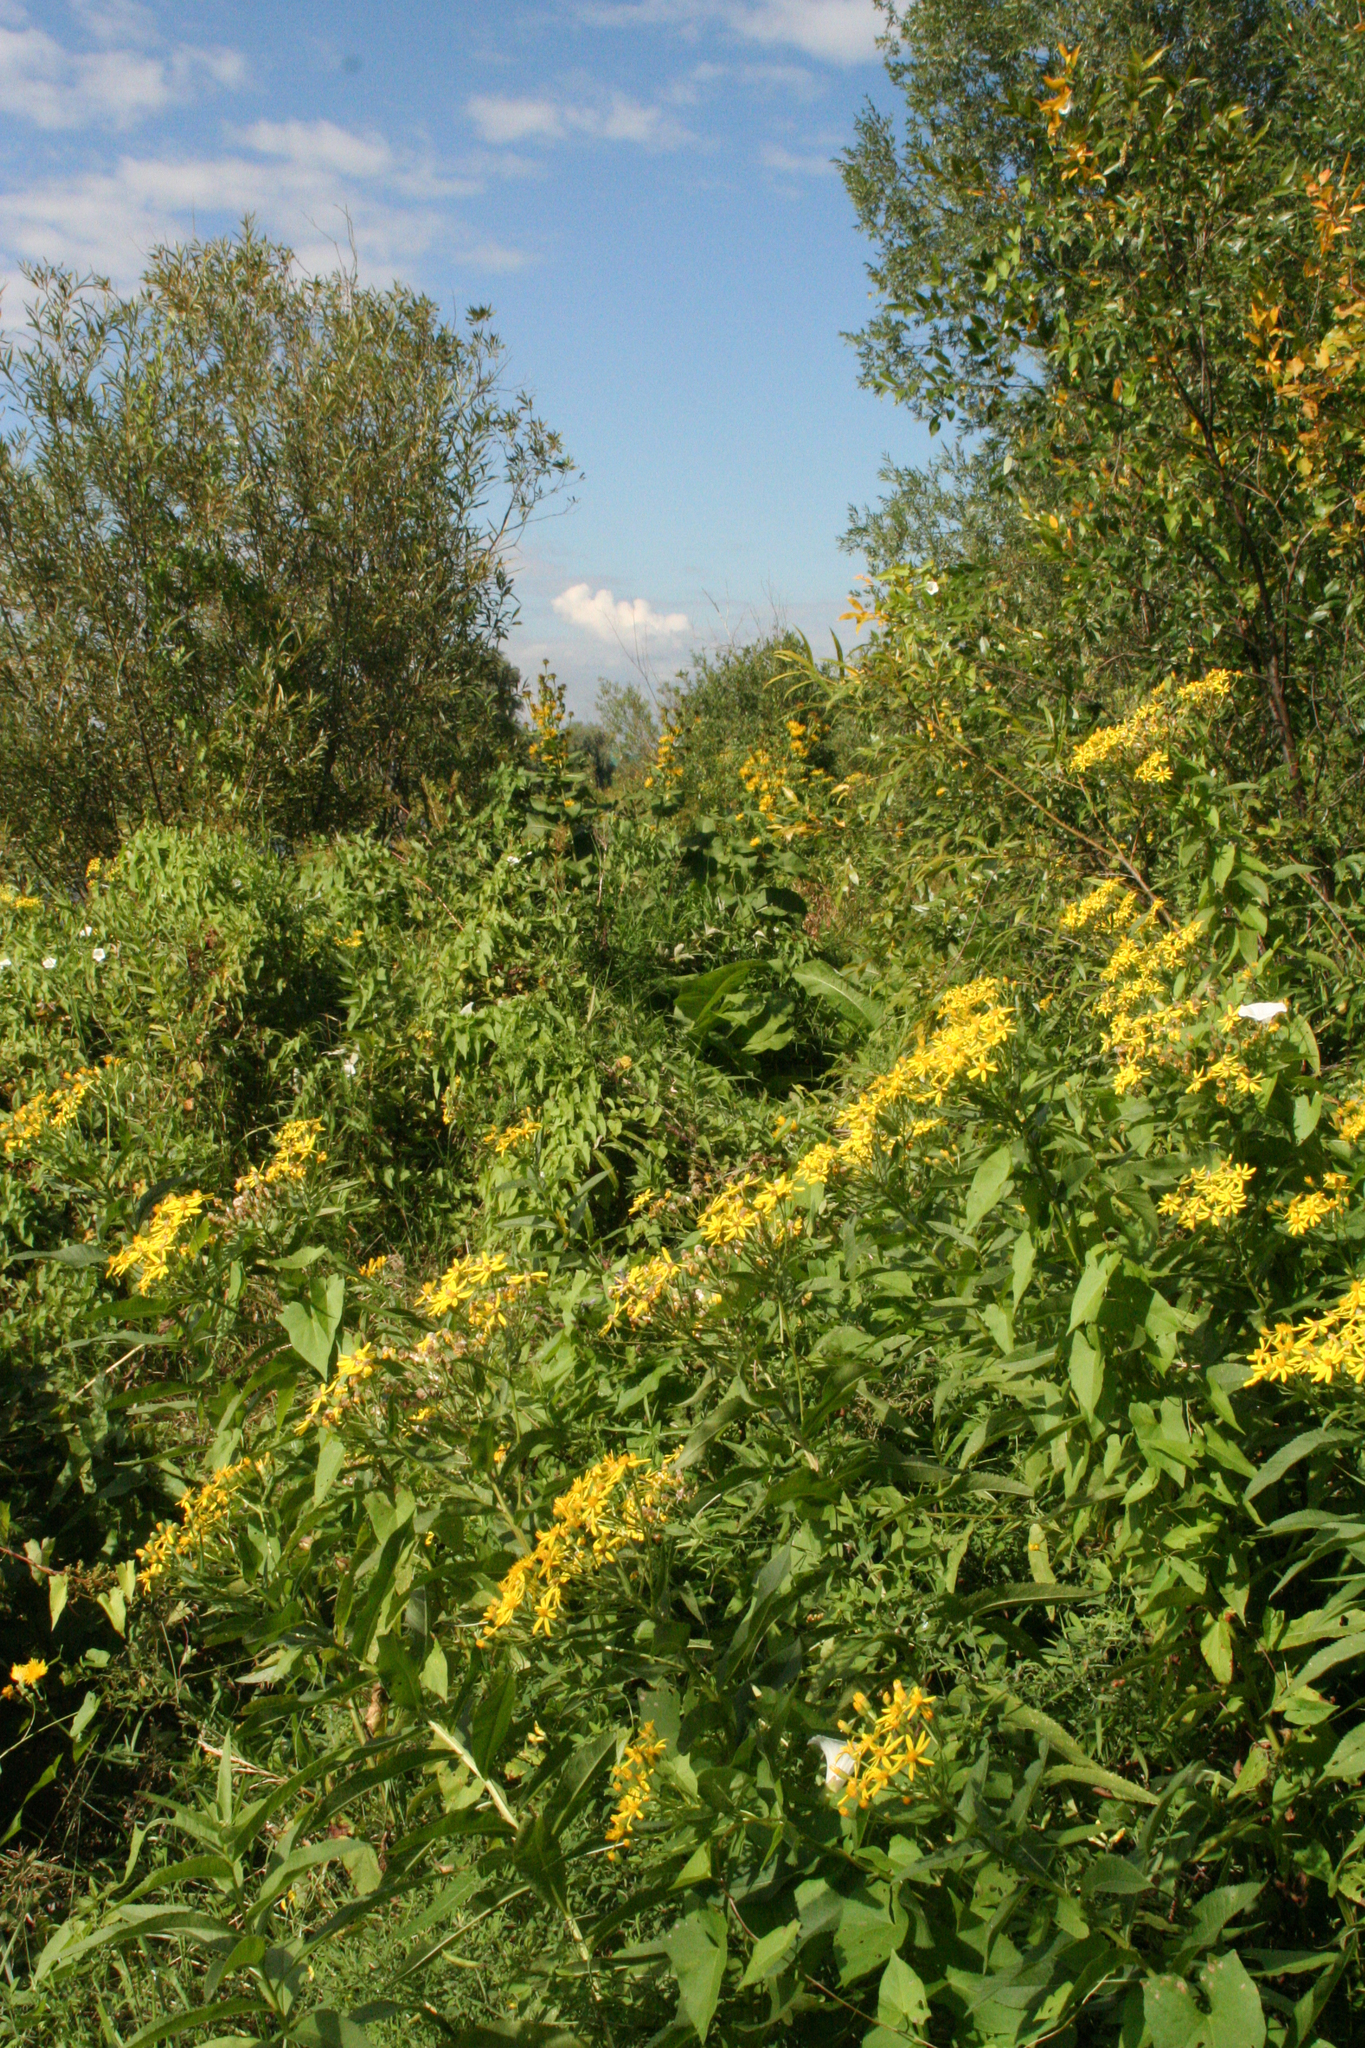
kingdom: Plantae
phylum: Tracheophyta
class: Magnoliopsida
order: Asterales
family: Asteraceae
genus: Senecio
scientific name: Senecio sarracenicus
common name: Broad-leaved ragwort
